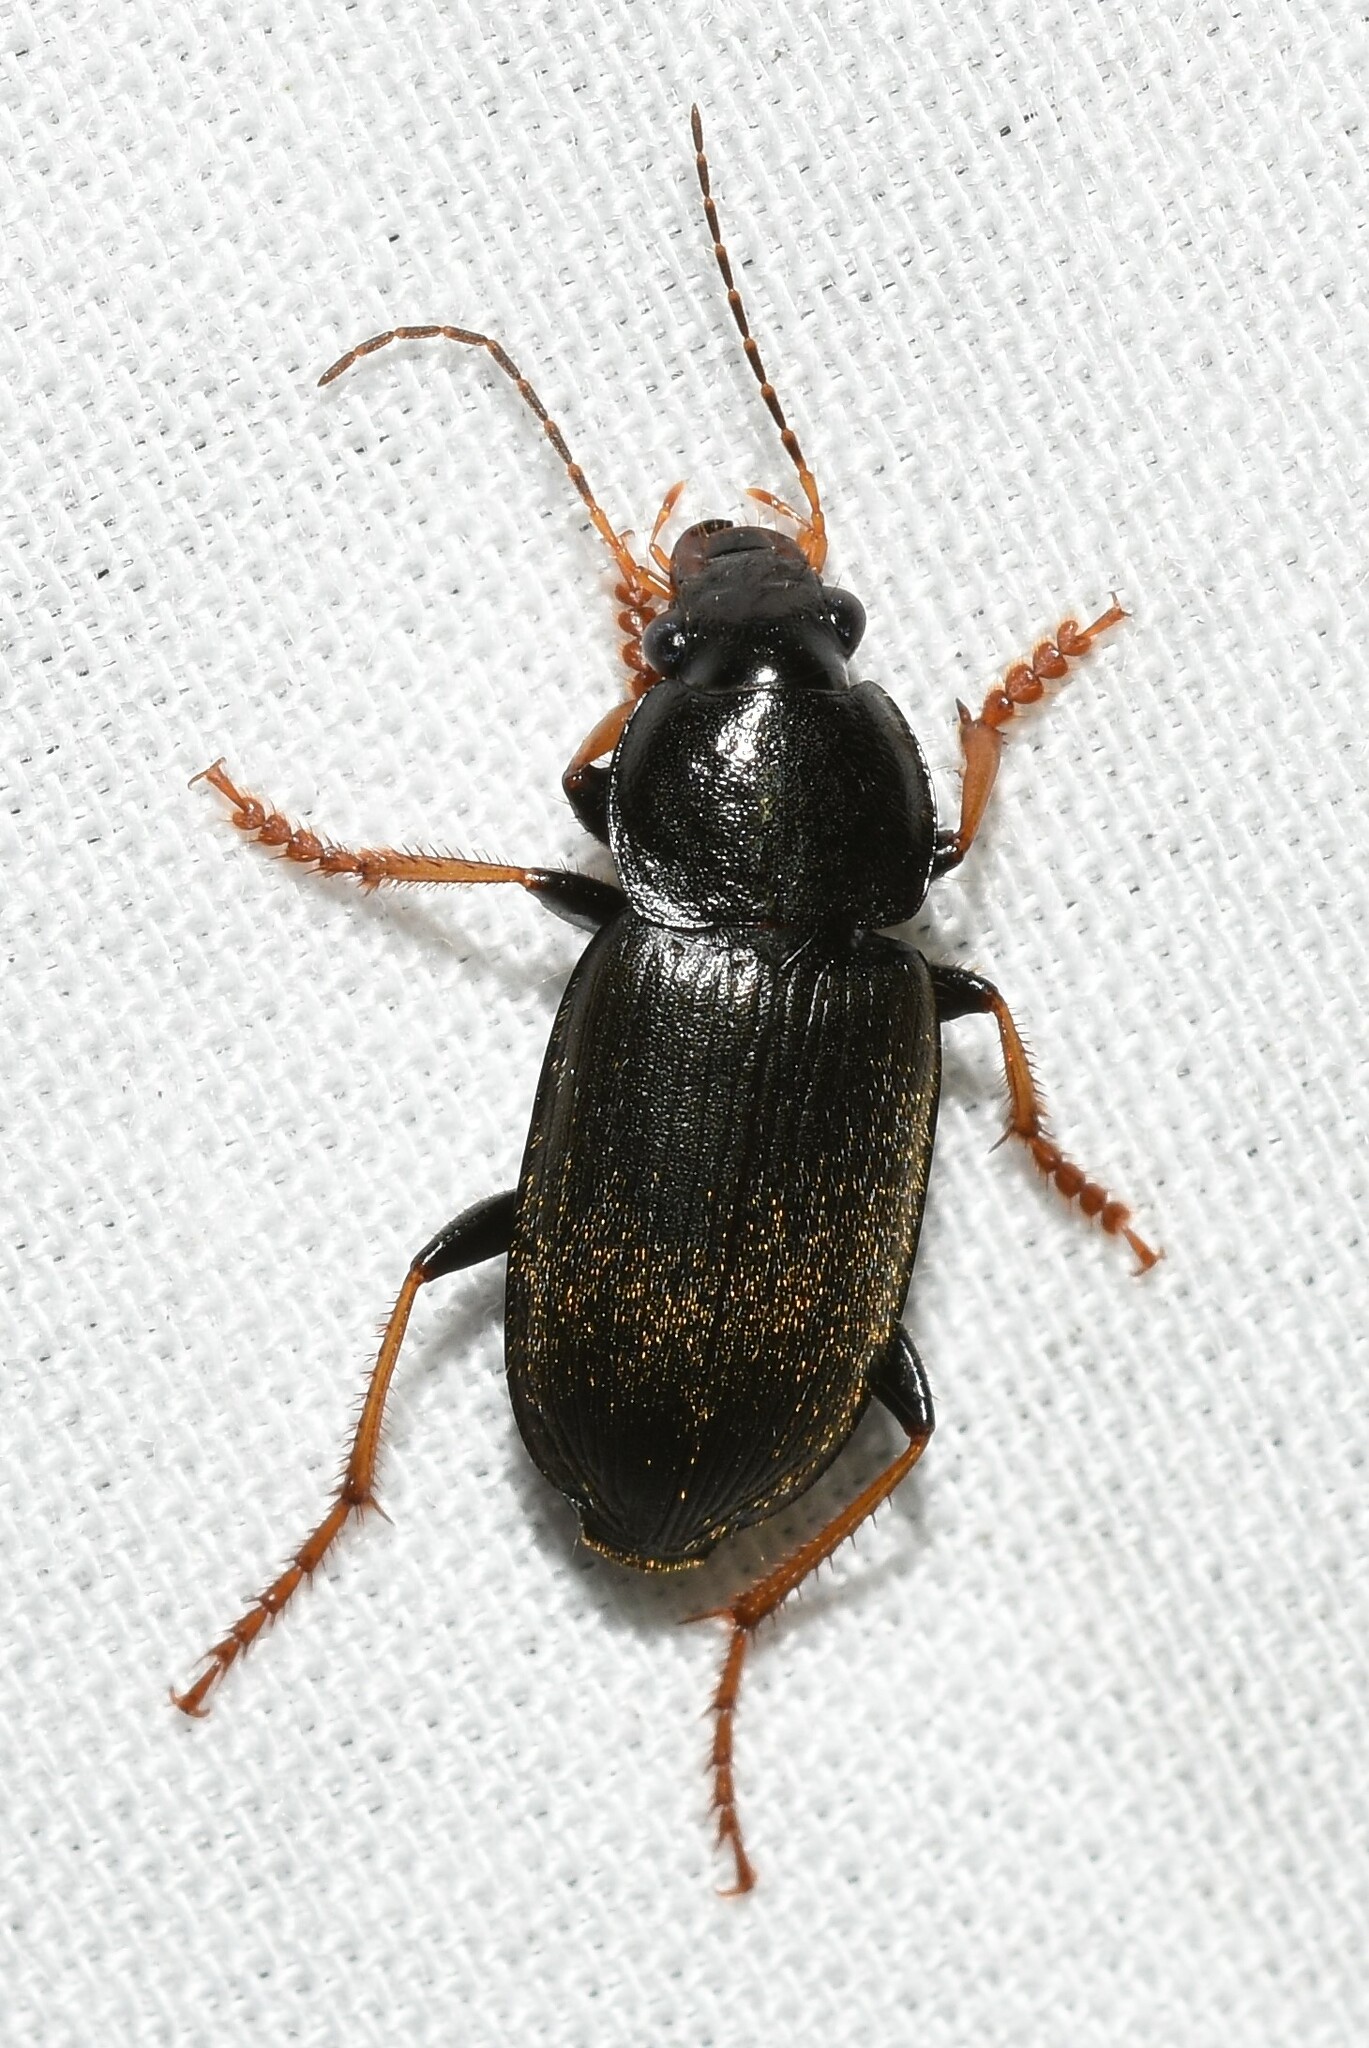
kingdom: Animalia
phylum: Arthropoda
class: Insecta
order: Coleoptera
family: Carabidae
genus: Amphasia
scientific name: Amphasia sericea
